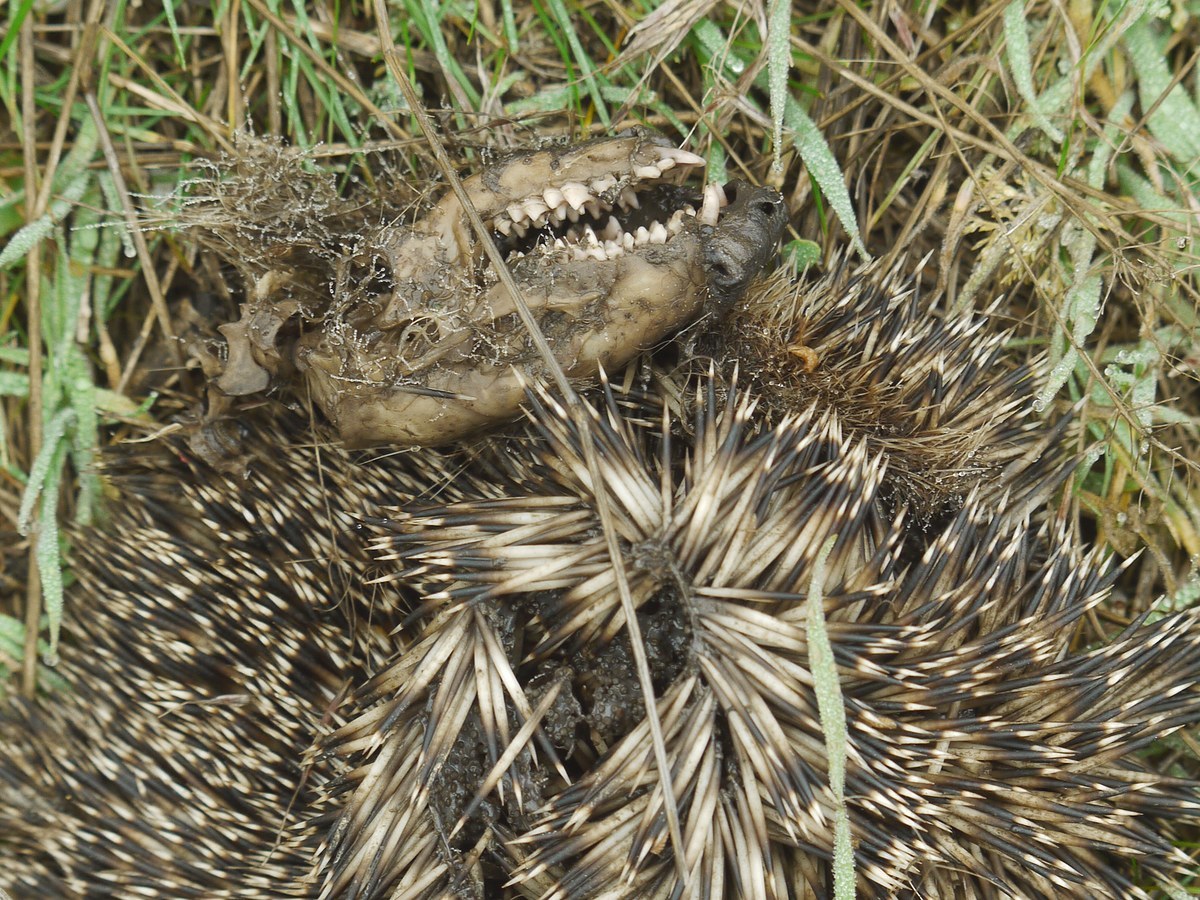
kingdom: Animalia
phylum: Chordata
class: Mammalia
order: Erinaceomorpha
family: Erinaceidae
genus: Erinaceus
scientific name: Erinaceus roumanicus
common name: Northern white-breasted hedgehog
